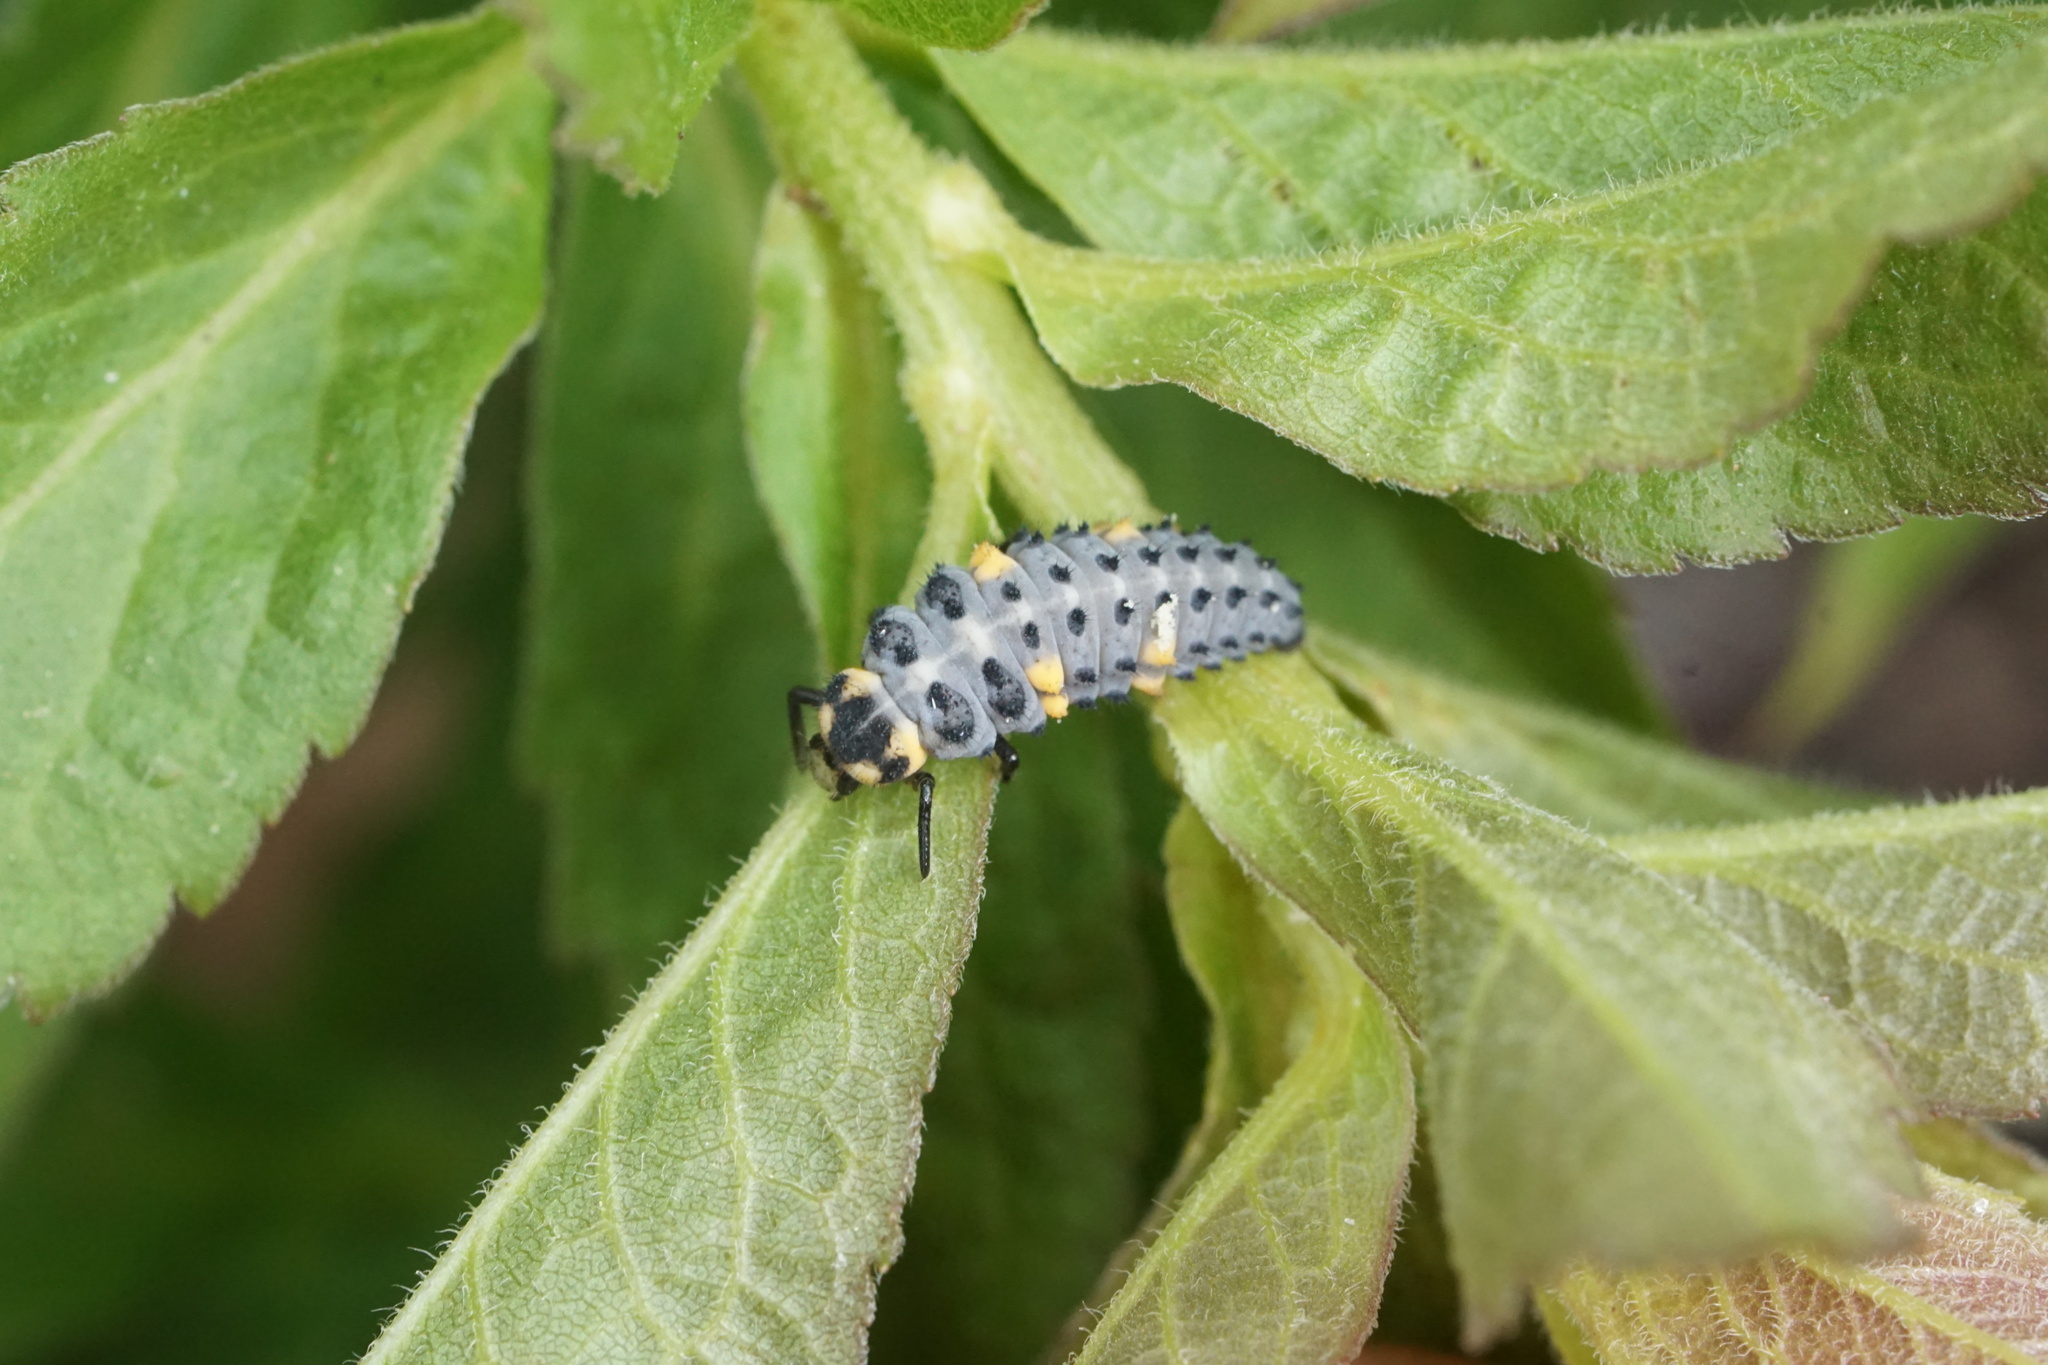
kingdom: Animalia
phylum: Arthropoda
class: Insecta
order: Coleoptera
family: Coccinellidae
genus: Coccinella
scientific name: Coccinella septempunctata
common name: Sevenspotted lady beetle
